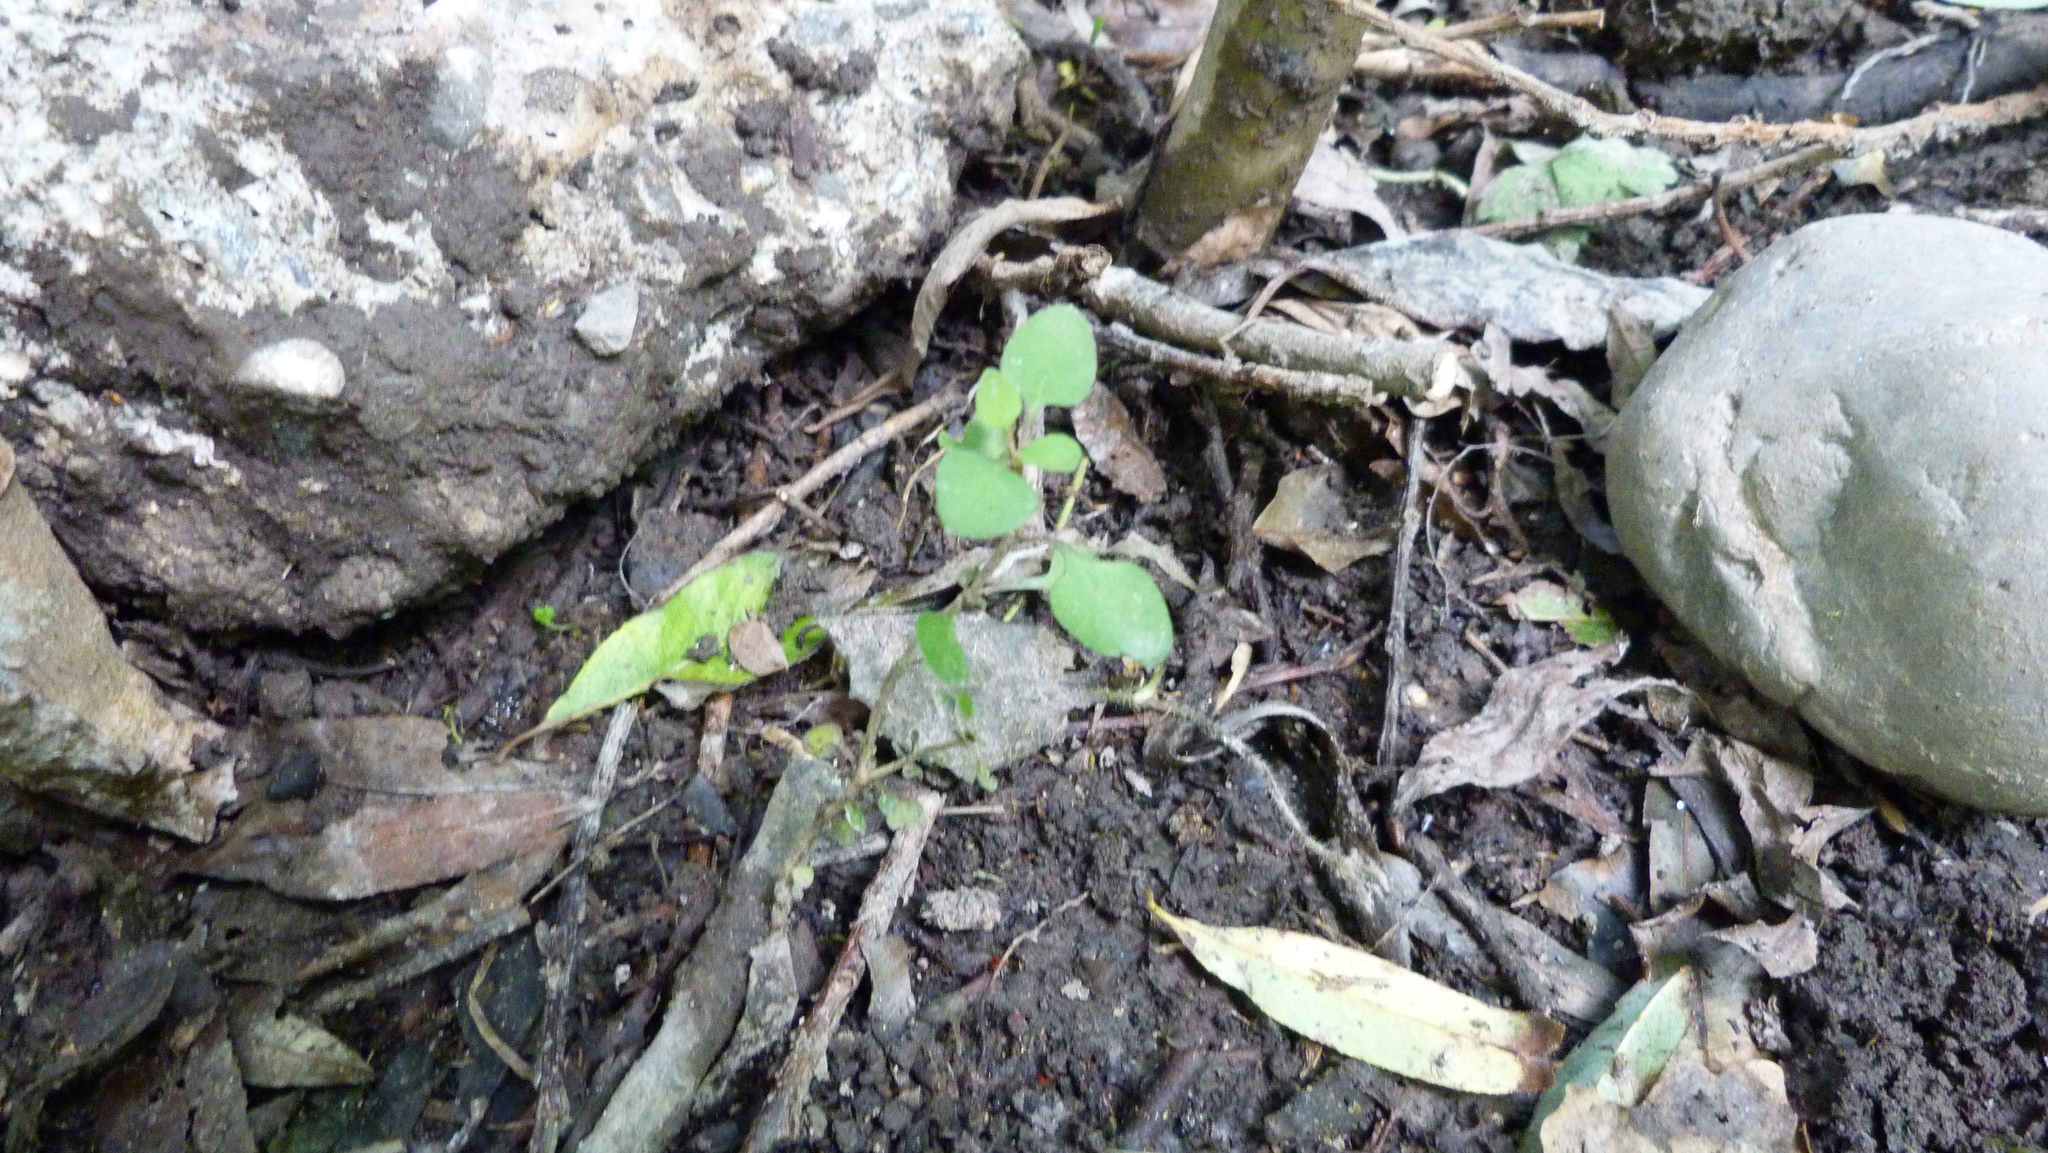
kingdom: Plantae
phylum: Tracheophyta
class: Magnoliopsida
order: Gentianales
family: Rubiaceae
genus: Coprosma
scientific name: Coprosma virescens
